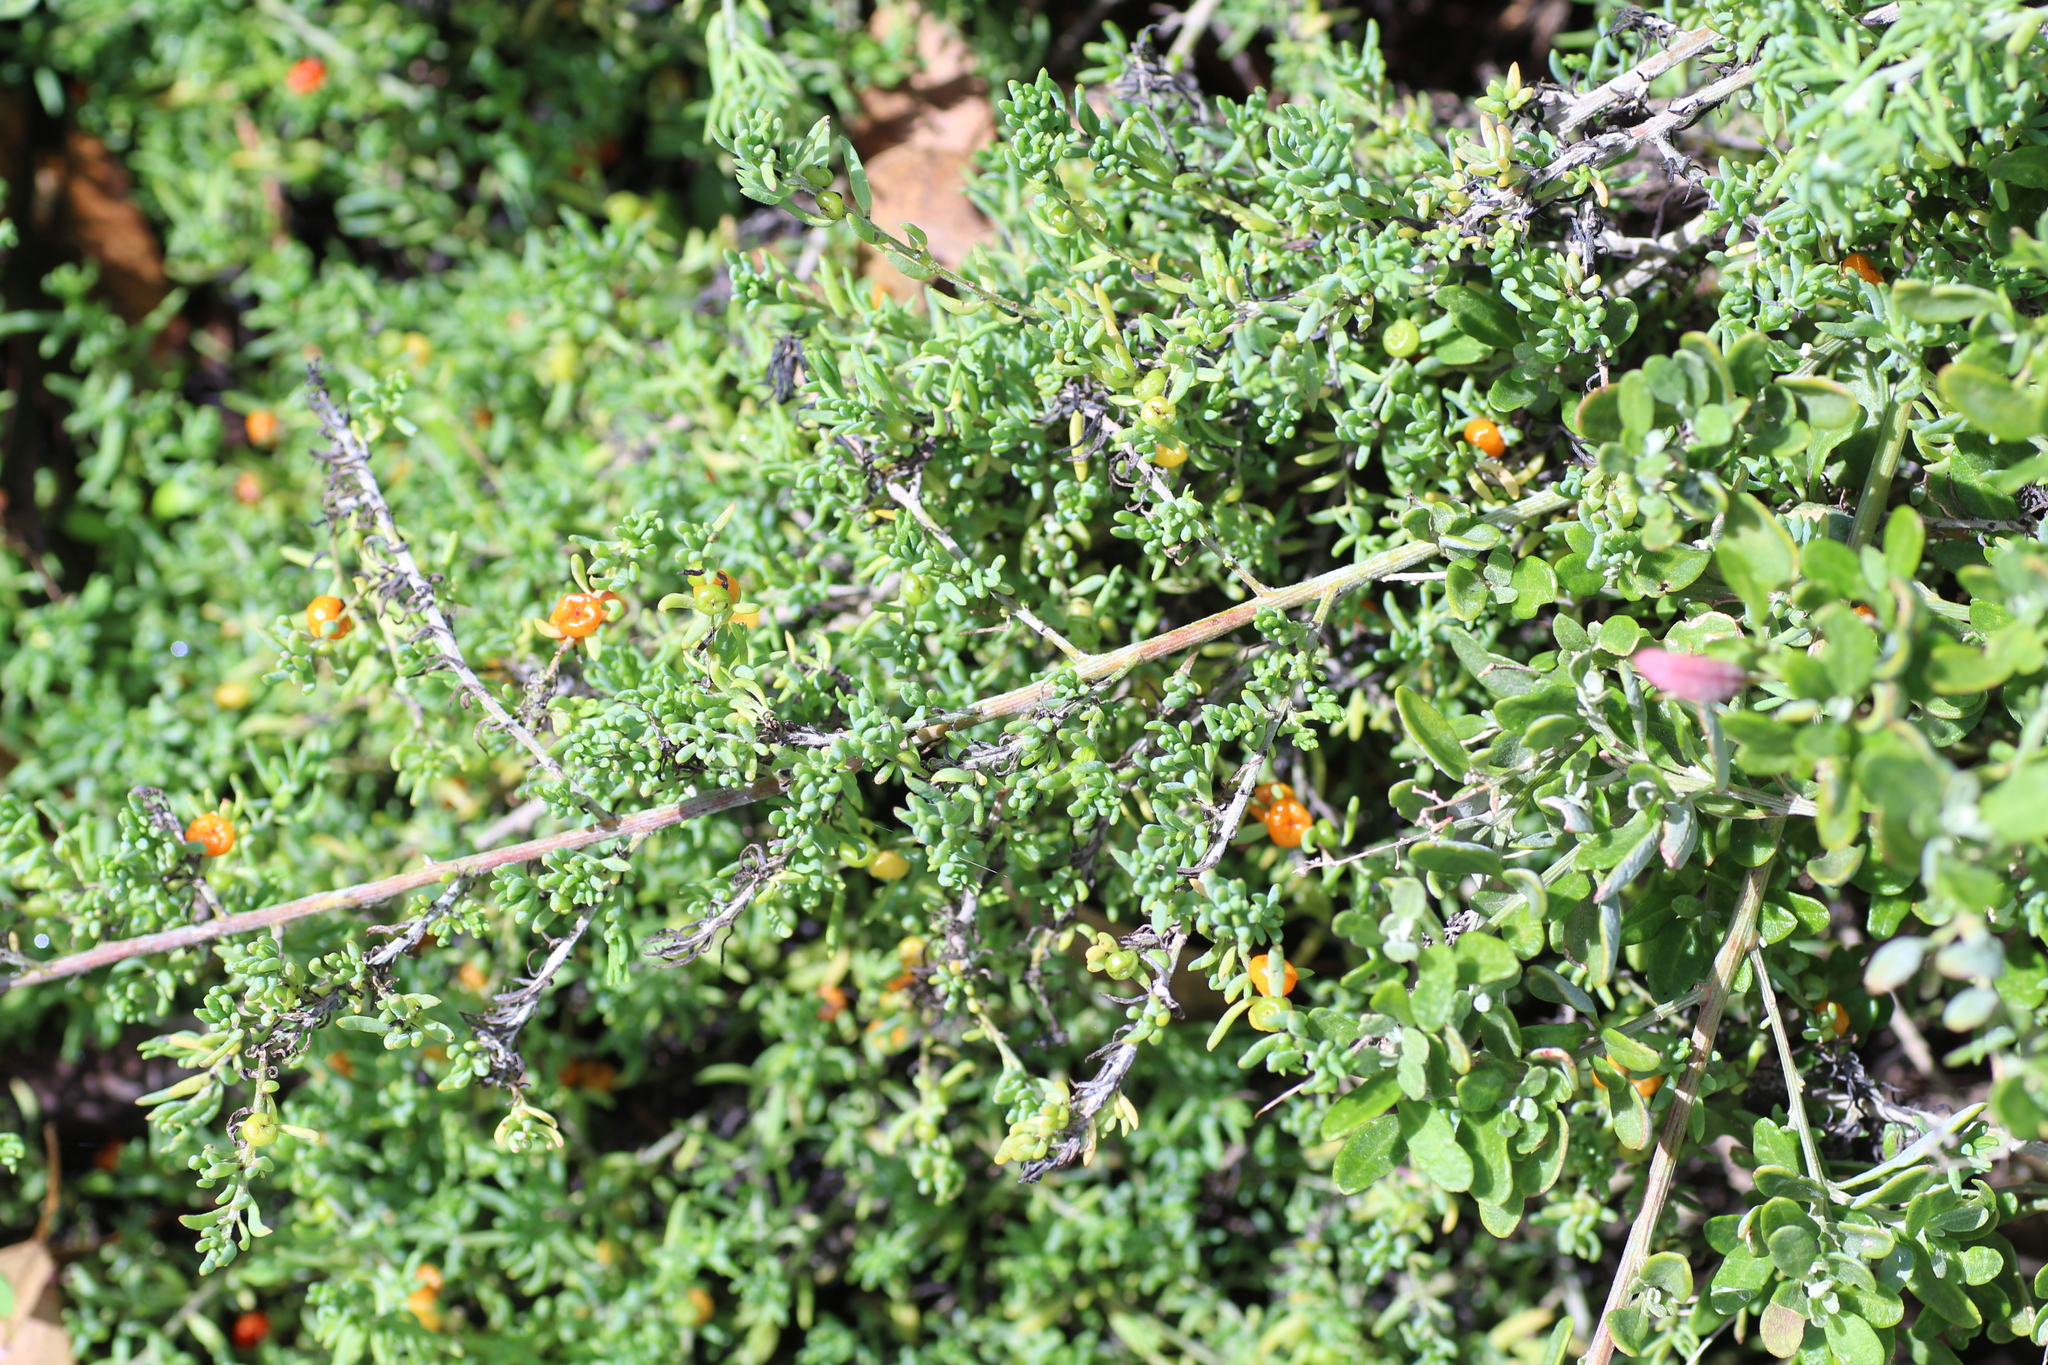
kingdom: Plantae
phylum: Tracheophyta
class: Magnoliopsida
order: Caryophyllales
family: Amaranthaceae
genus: Enchylaena
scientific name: Enchylaena tomentosa
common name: Ruby saltbush
